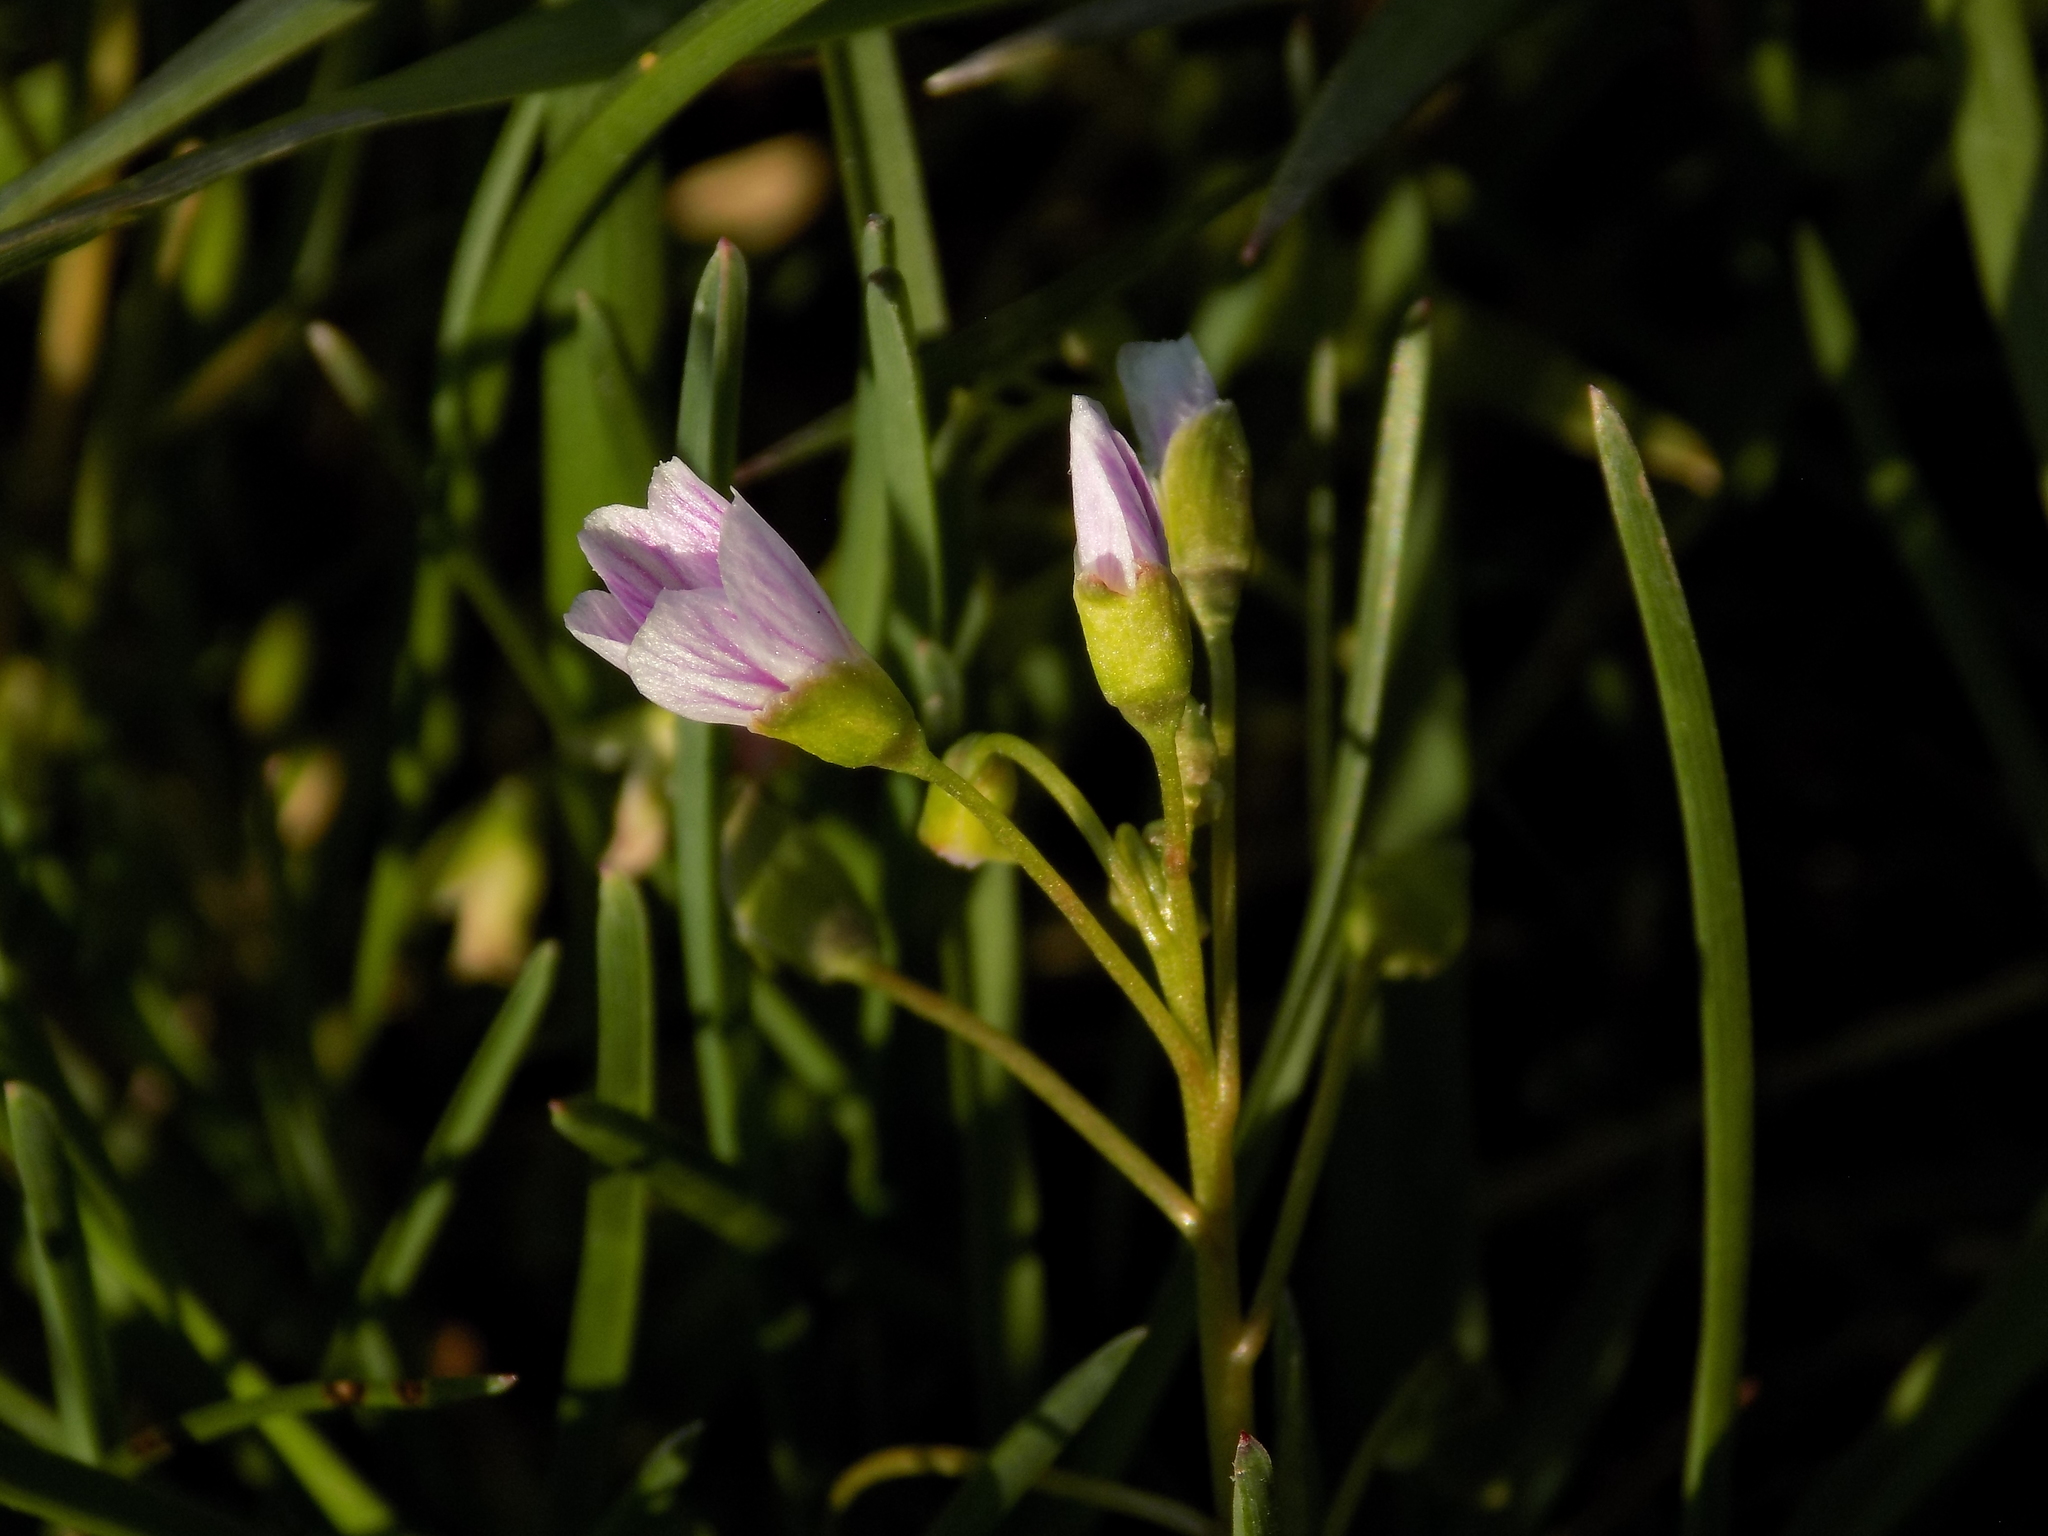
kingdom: Plantae
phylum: Tracheophyta
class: Magnoliopsida
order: Caryophyllales
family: Montiaceae
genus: Claytonia
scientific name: Claytonia virginica
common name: Virginia springbeauty
